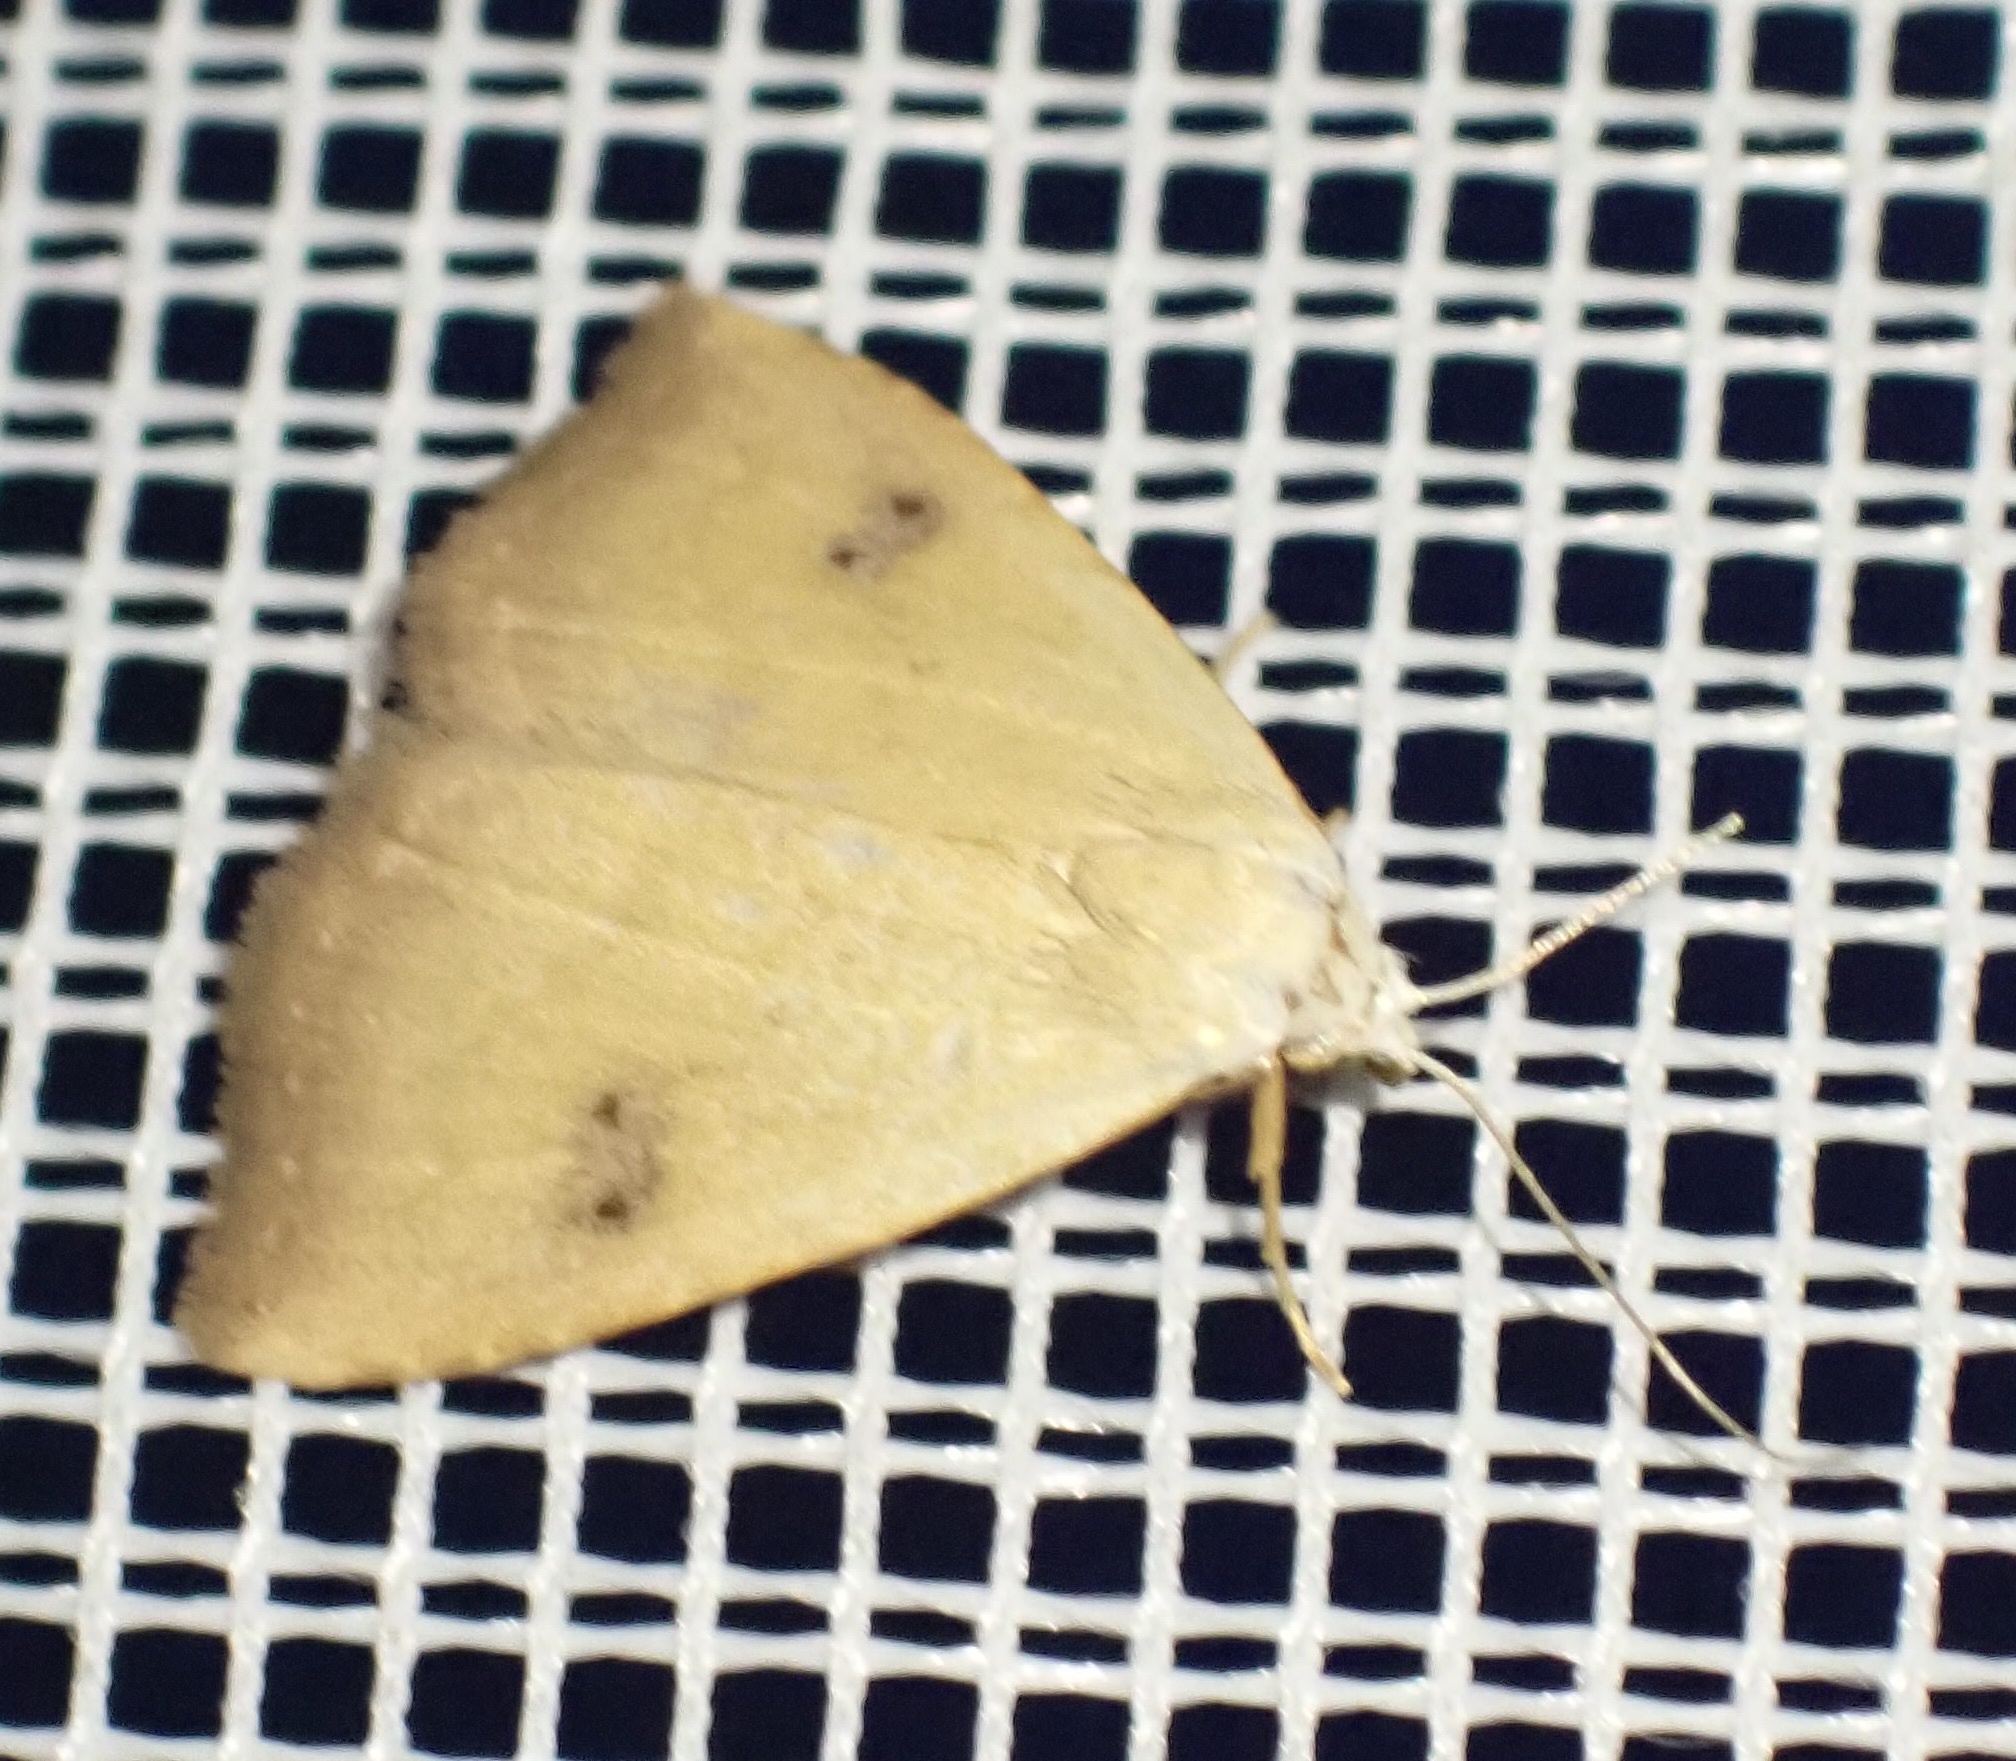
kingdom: Animalia
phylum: Arthropoda
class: Insecta
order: Lepidoptera
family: Erebidae
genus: Rivula
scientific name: Rivula sericealis
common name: Straw dot
